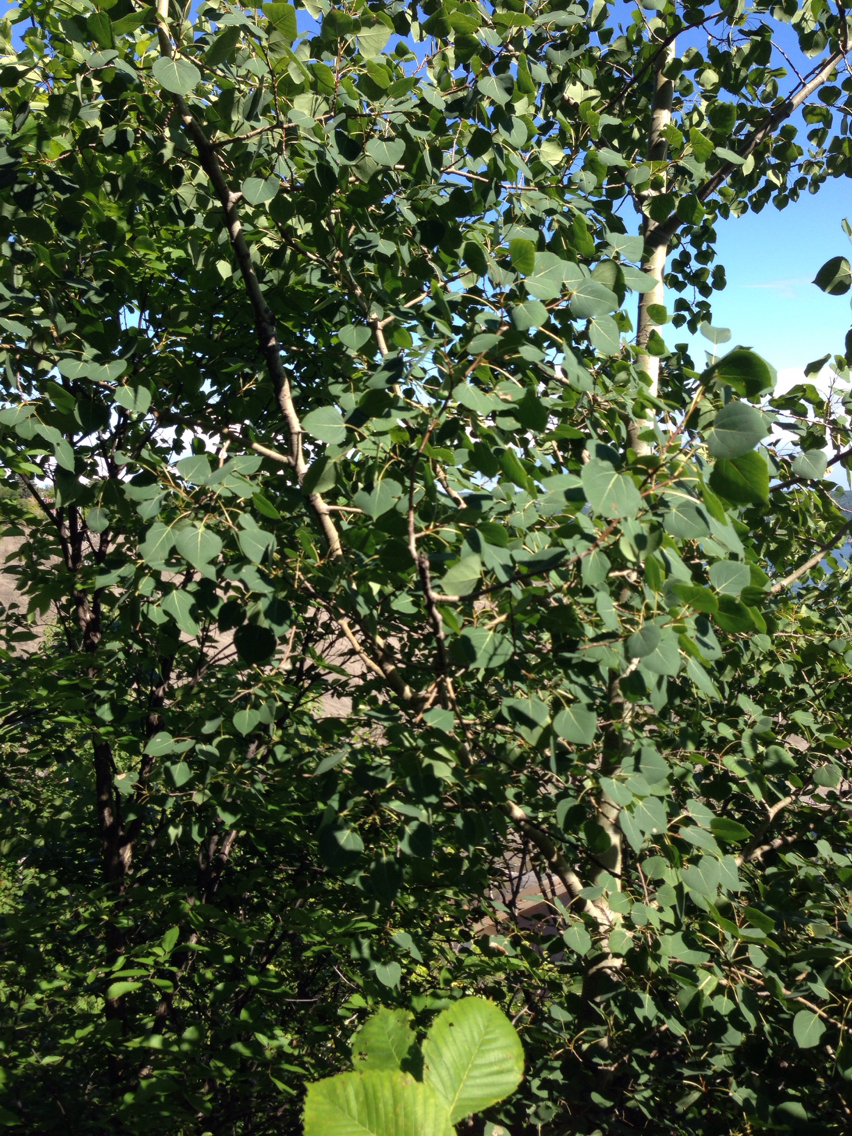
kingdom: Plantae
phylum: Tracheophyta
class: Magnoliopsida
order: Malpighiales
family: Salicaceae
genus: Populus
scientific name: Populus tremuloides
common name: Quaking aspen
